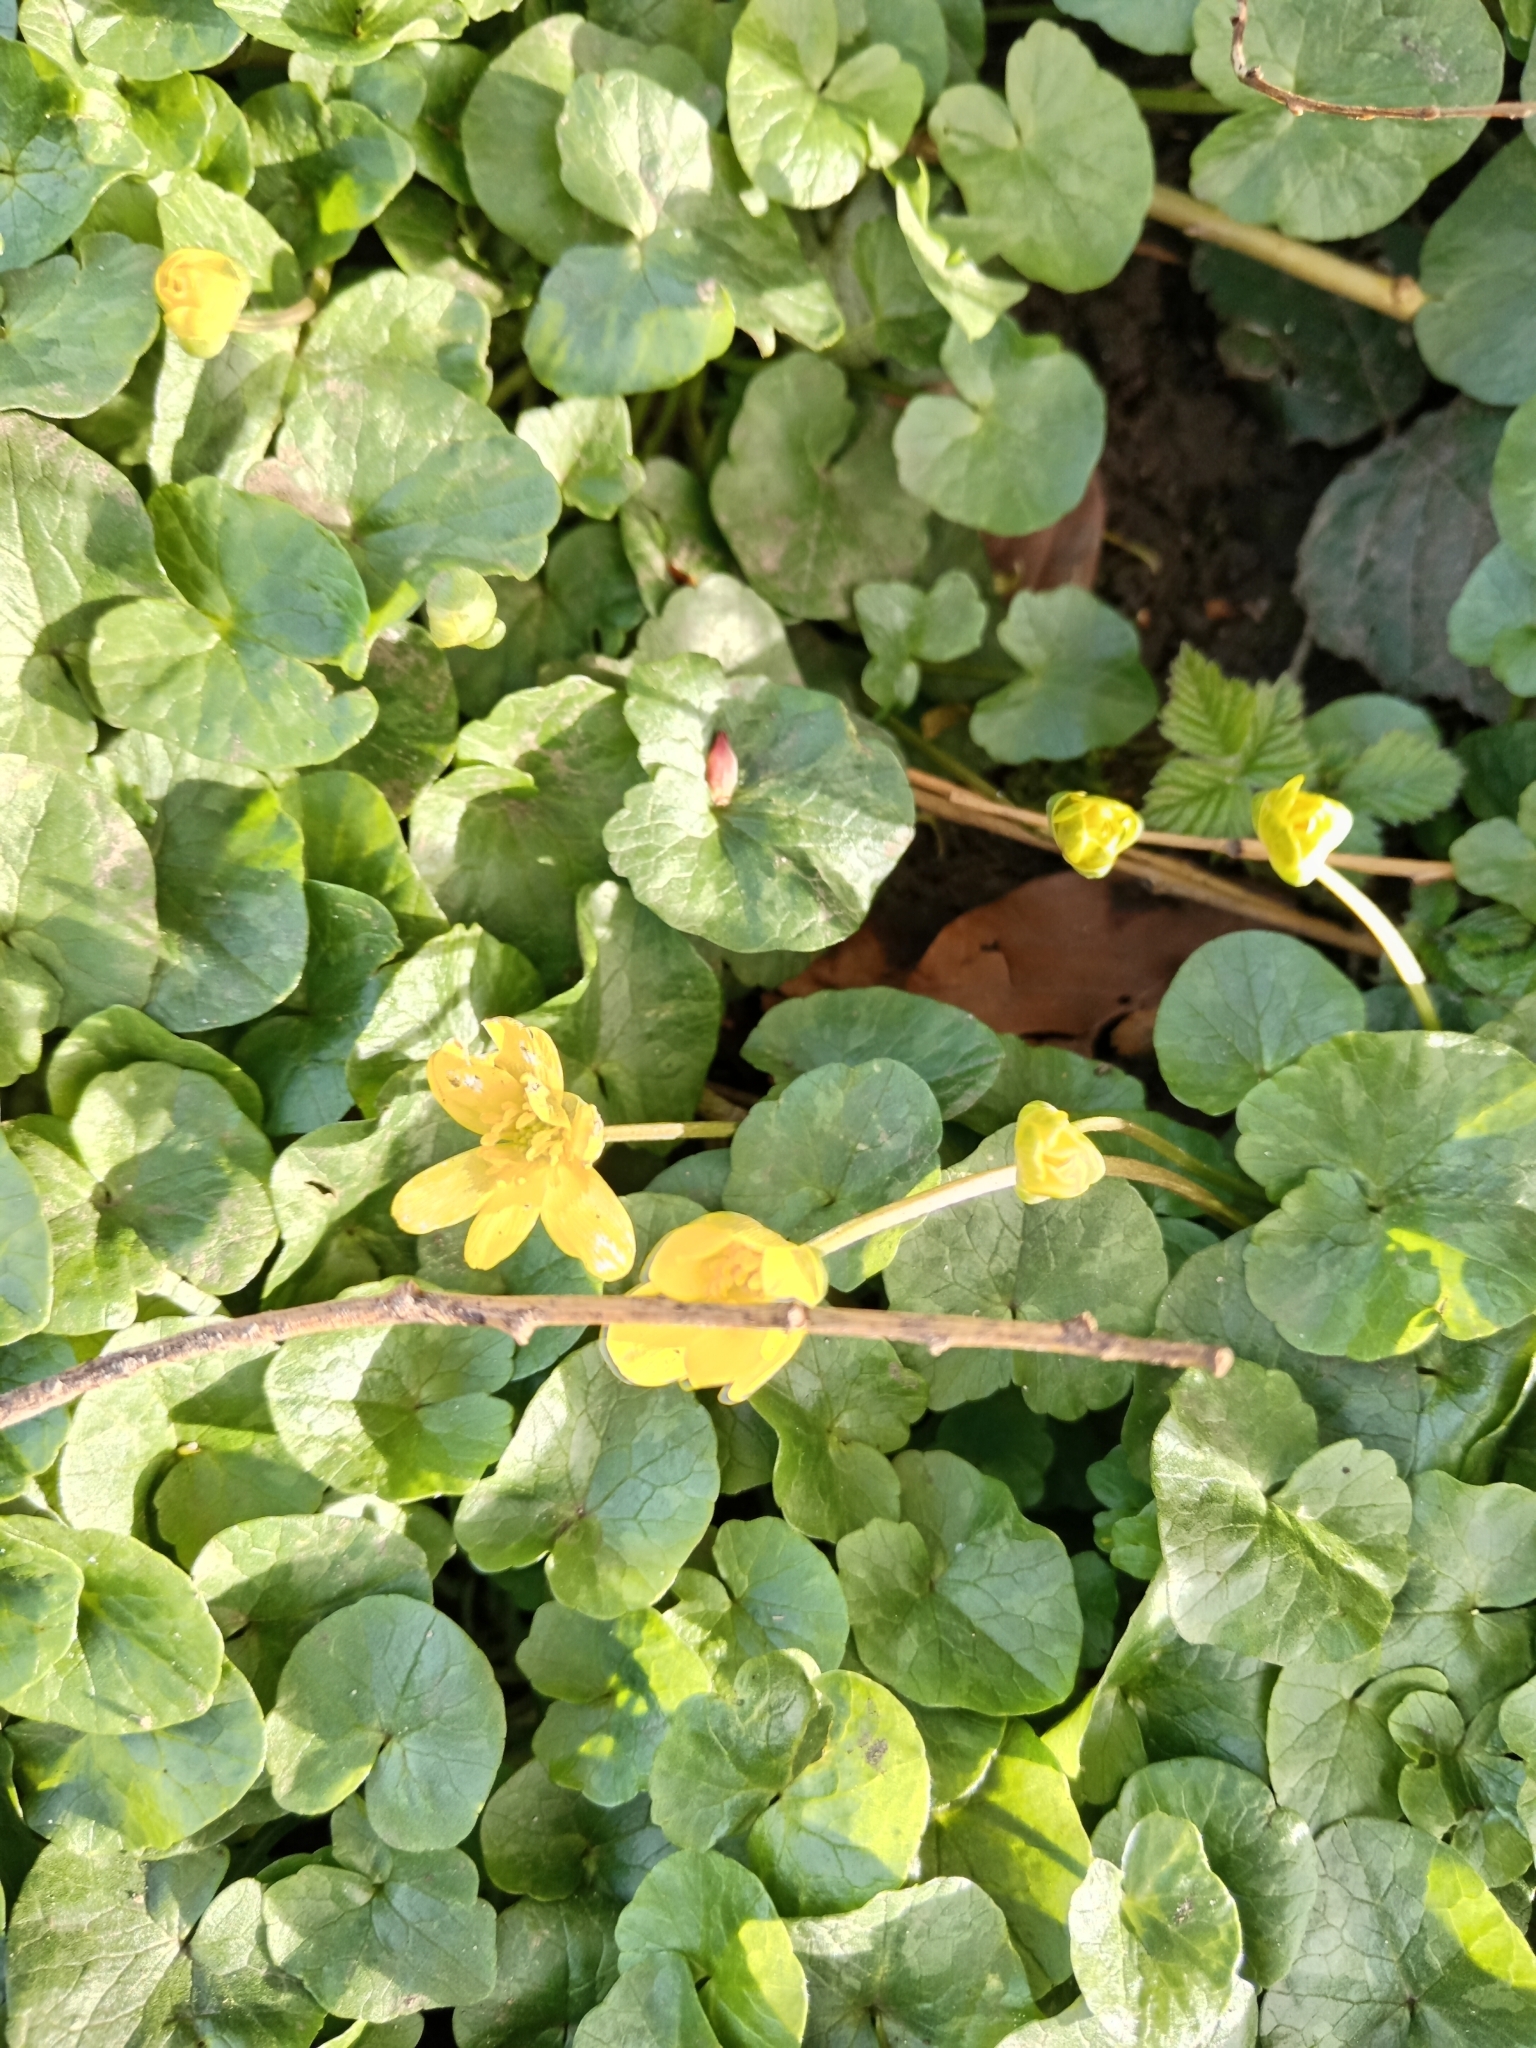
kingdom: Plantae
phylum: Tracheophyta
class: Magnoliopsida
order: Ranunculales
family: Ranunculaceae
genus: Ficaria
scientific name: Ficaria verna
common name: Lesser celandine
